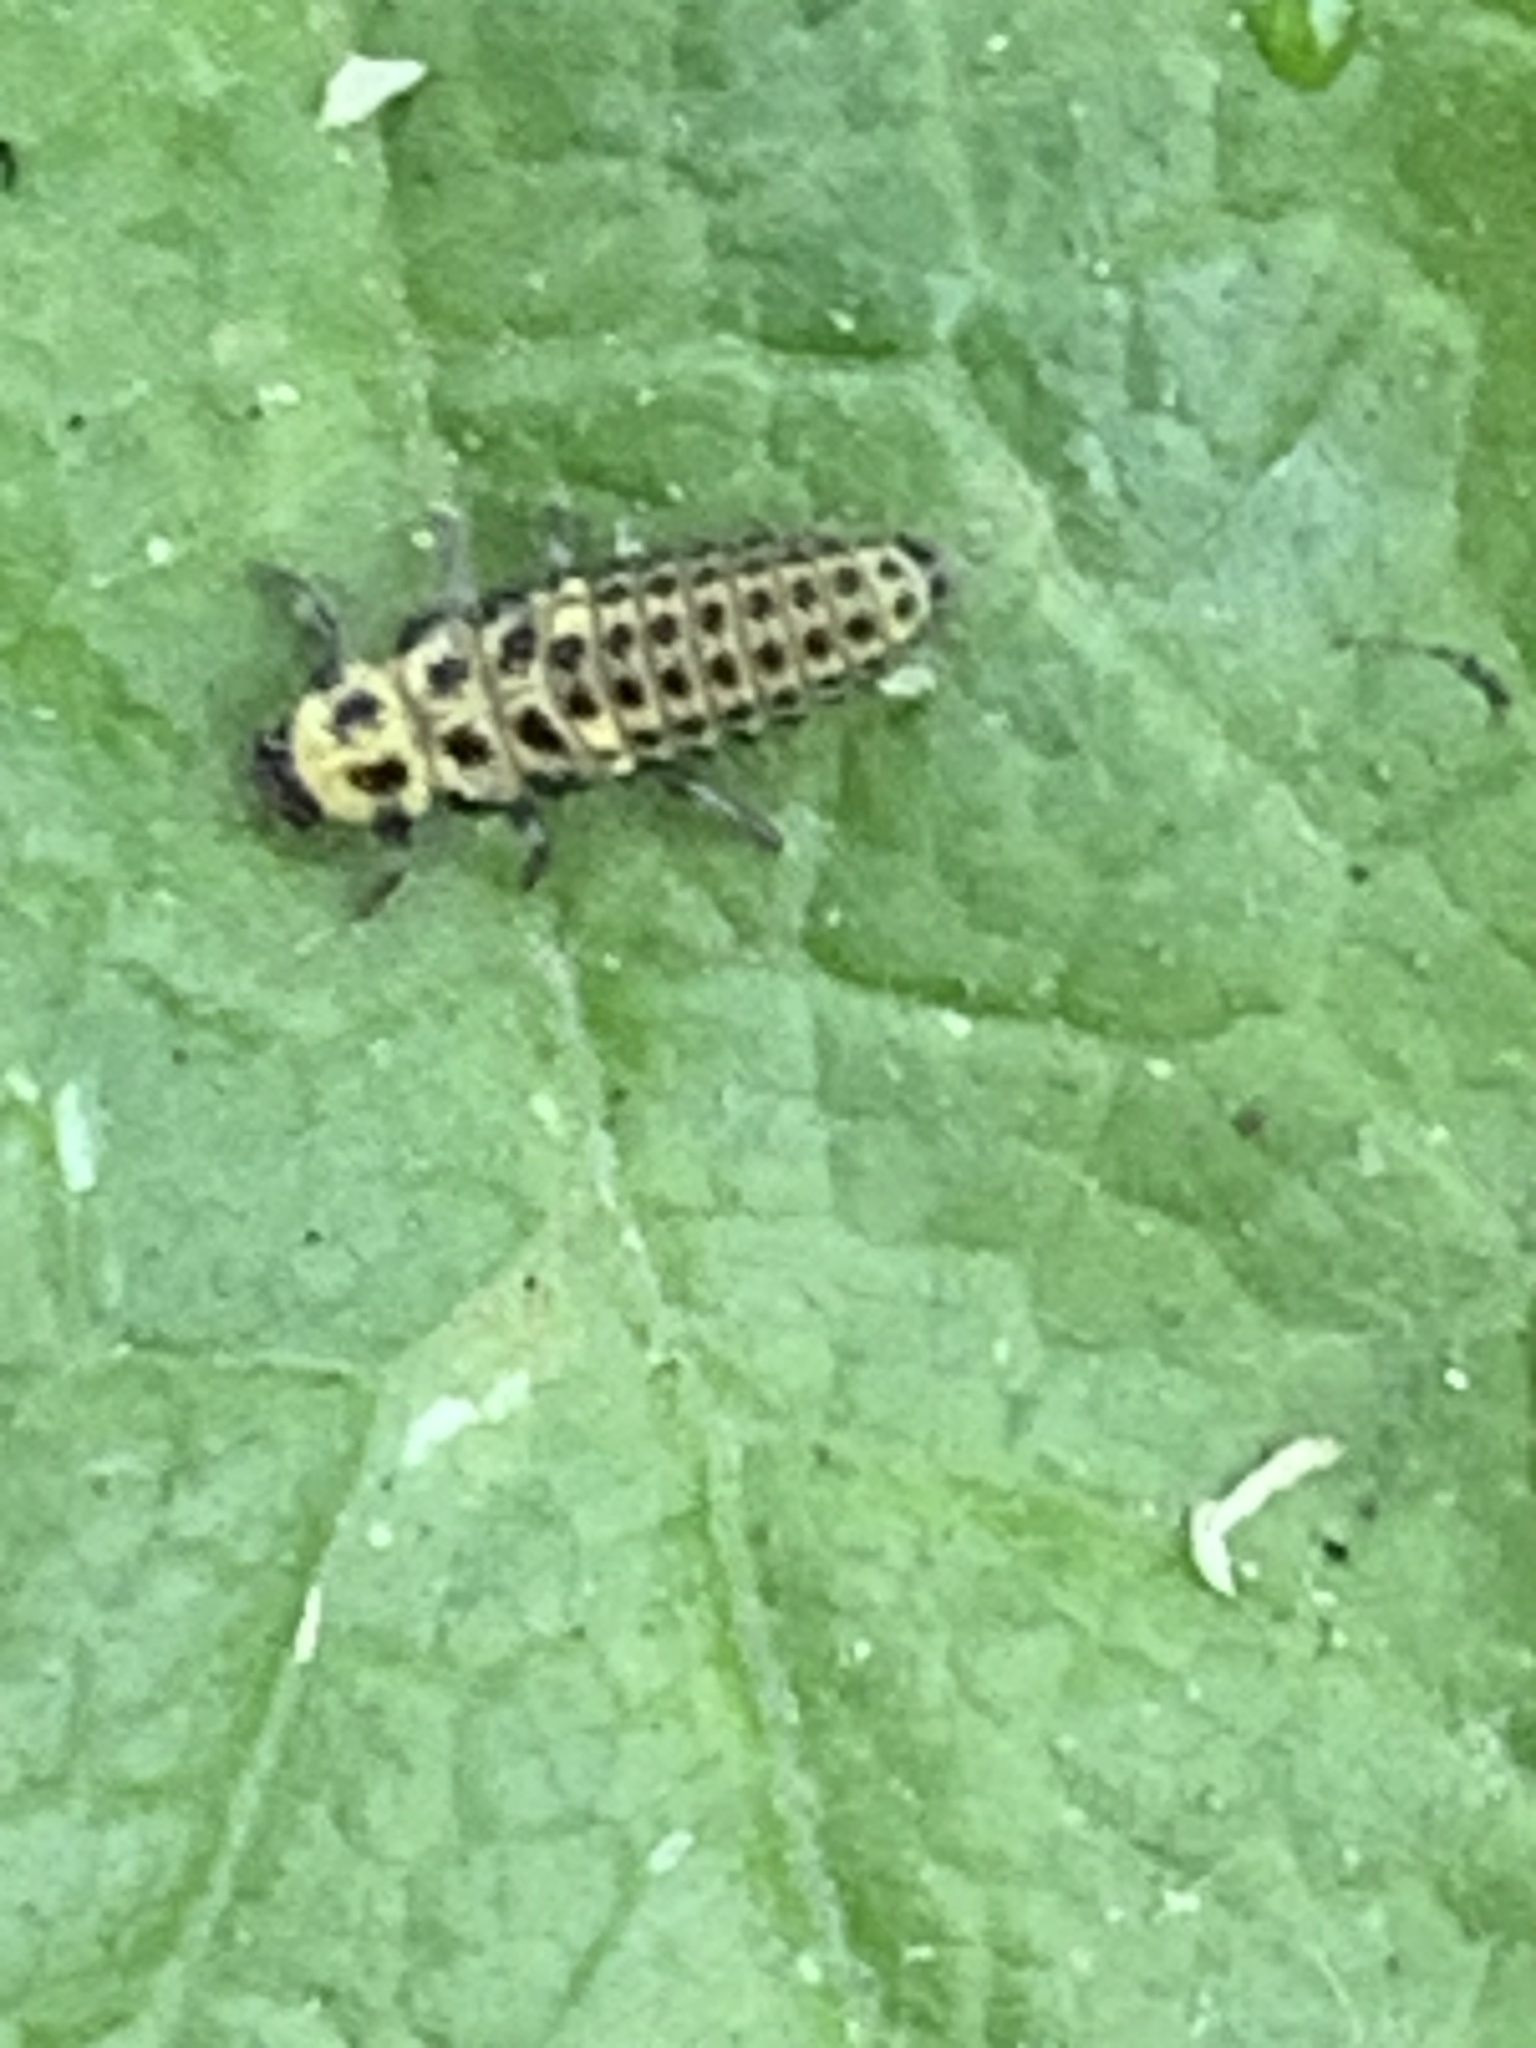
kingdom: Animalia
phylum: Arthropoda
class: Insecta
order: Coleoptera
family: Coccinellidae
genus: Psyllobora
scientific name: Psyllobora vigintiduopunctata
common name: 22-spot ladybird
